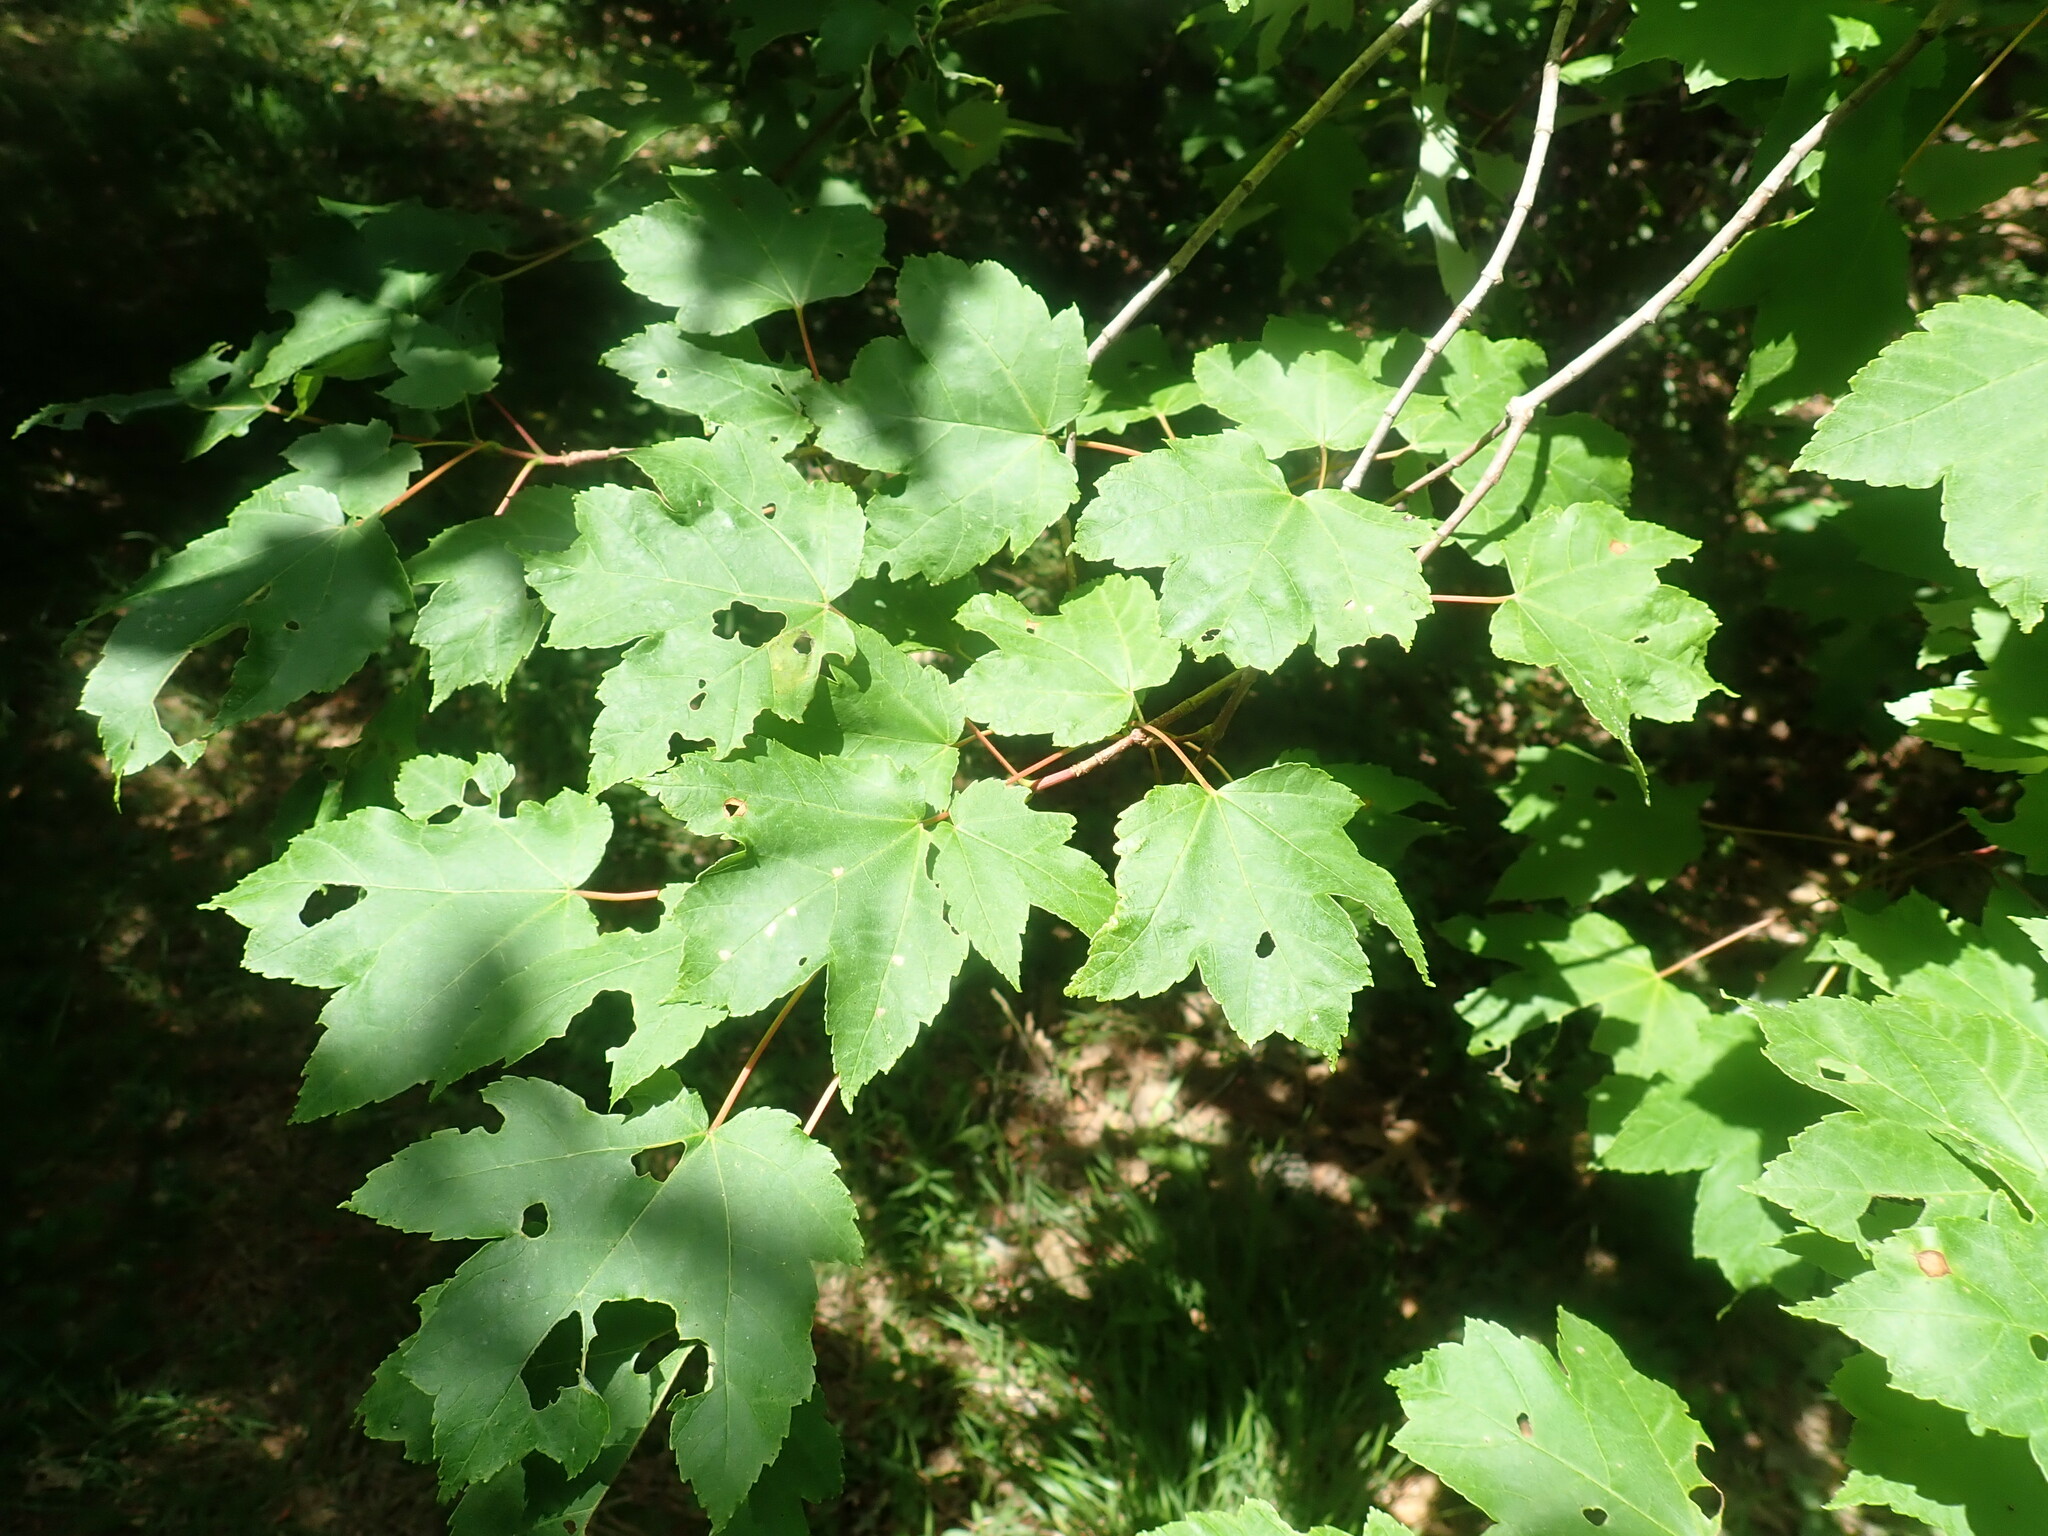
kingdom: Plantae
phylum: Tracheophyta
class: Magnoliopsida
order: Sapindales
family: Sapindaceae
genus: Acer
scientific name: Acer rubrum
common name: Red maple
